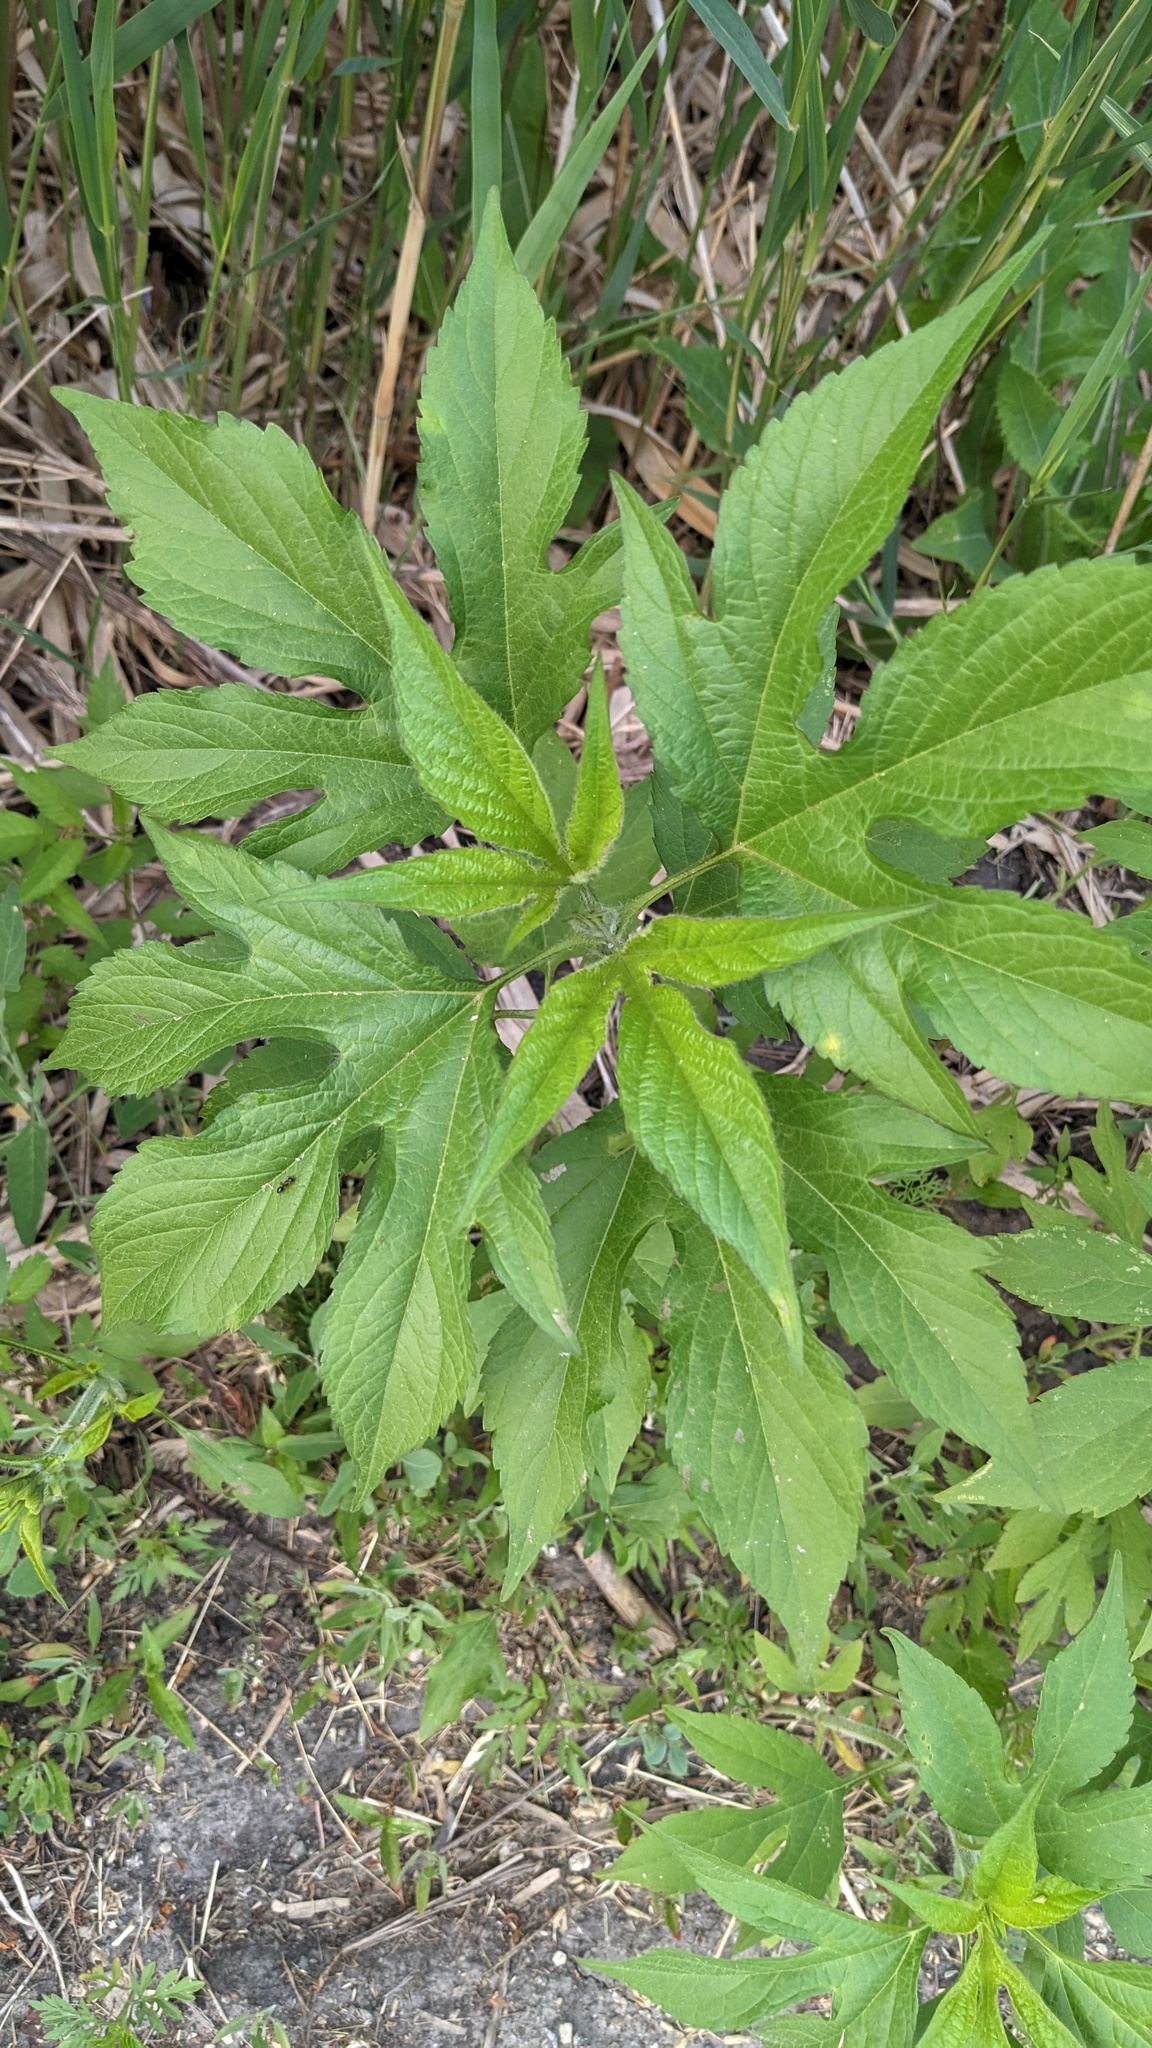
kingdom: Plantae
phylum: Tracheophyta
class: Magnoliopsida
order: Asterales
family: Asteraceae
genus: Ambrosia
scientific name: Ambrosia trifida
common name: Giant ragweed
